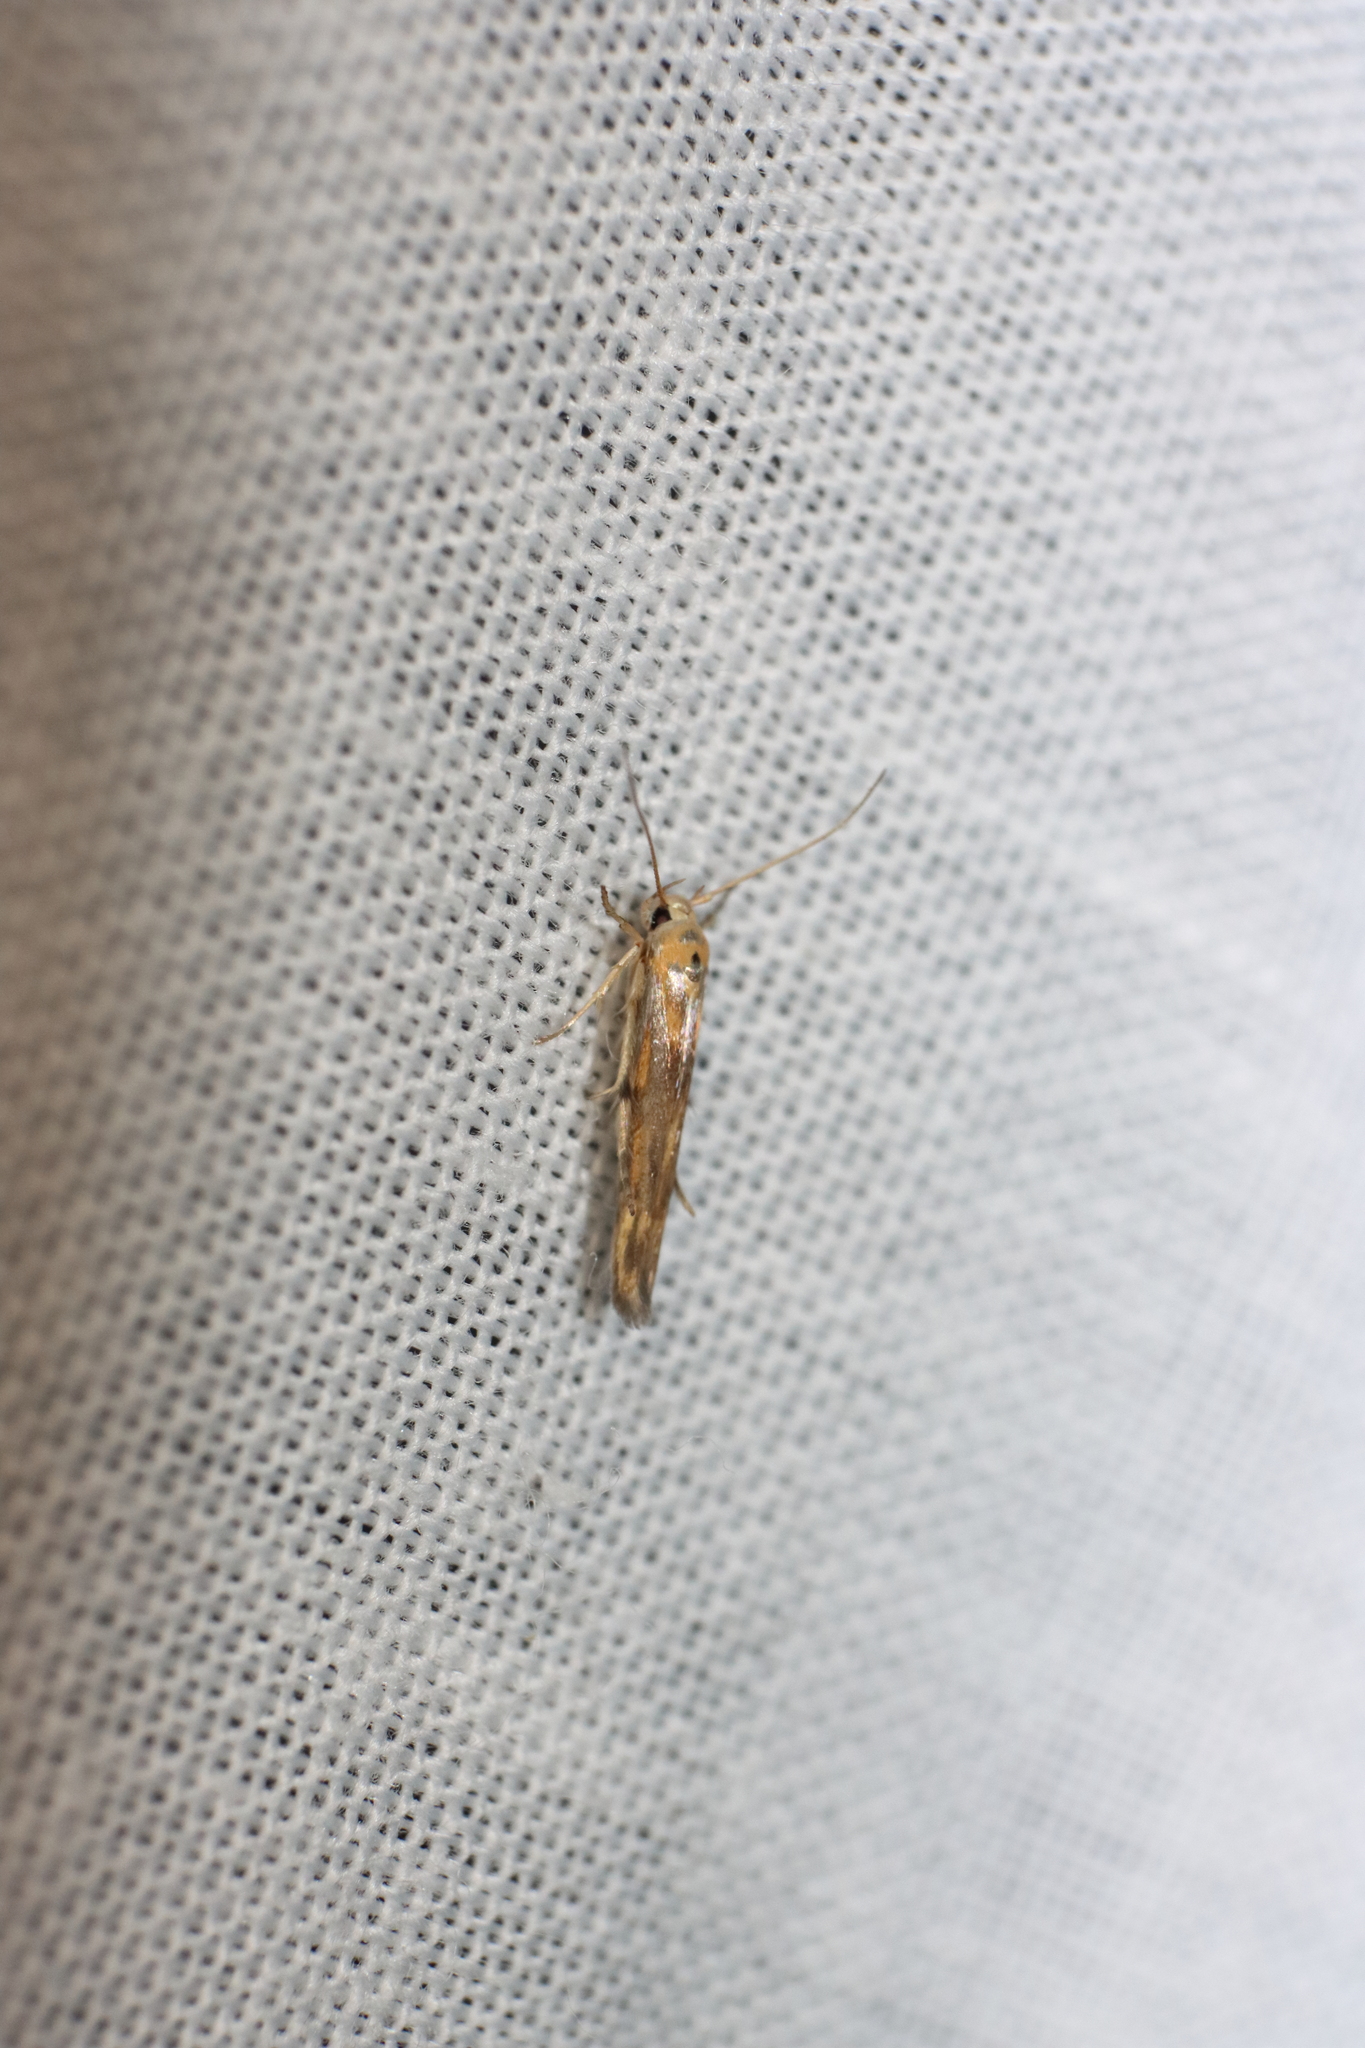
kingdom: Animalia
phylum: Arthropoda
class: Insecta
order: Lepidoptera
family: Stathmopodidae
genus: Stathmopoda
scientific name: Stathmopoda horticola
